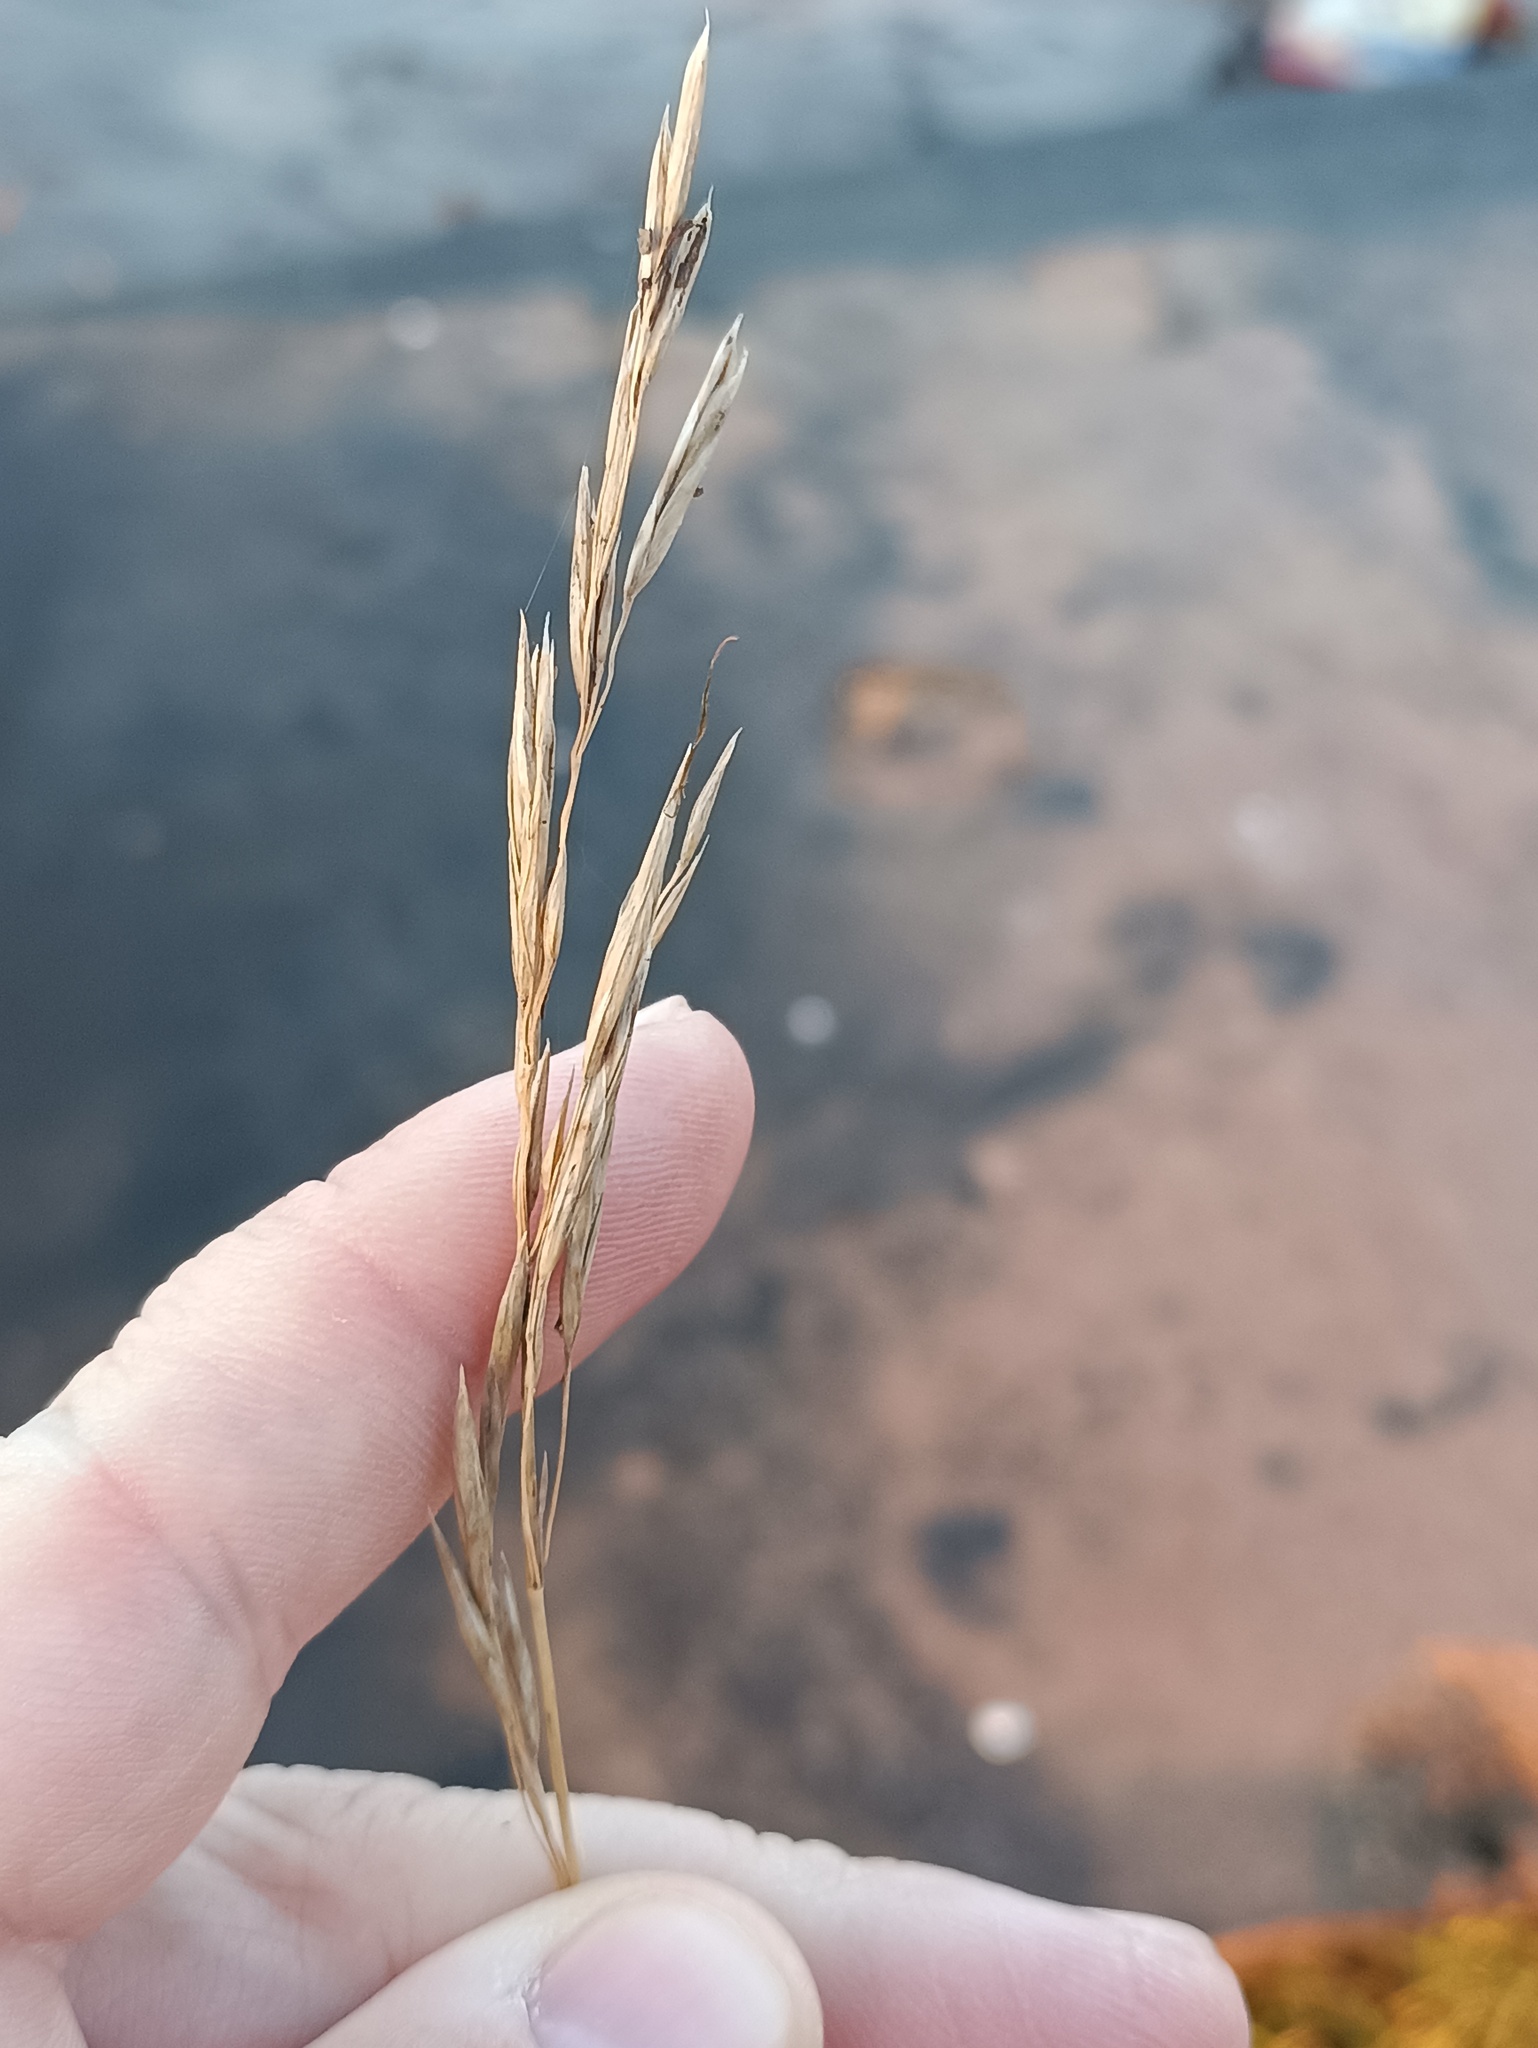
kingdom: Plantae
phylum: Tracheophyta
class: Liliopsida
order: Poales
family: Poaceae
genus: Bromus
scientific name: Bromus inermis
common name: Smooth brome
